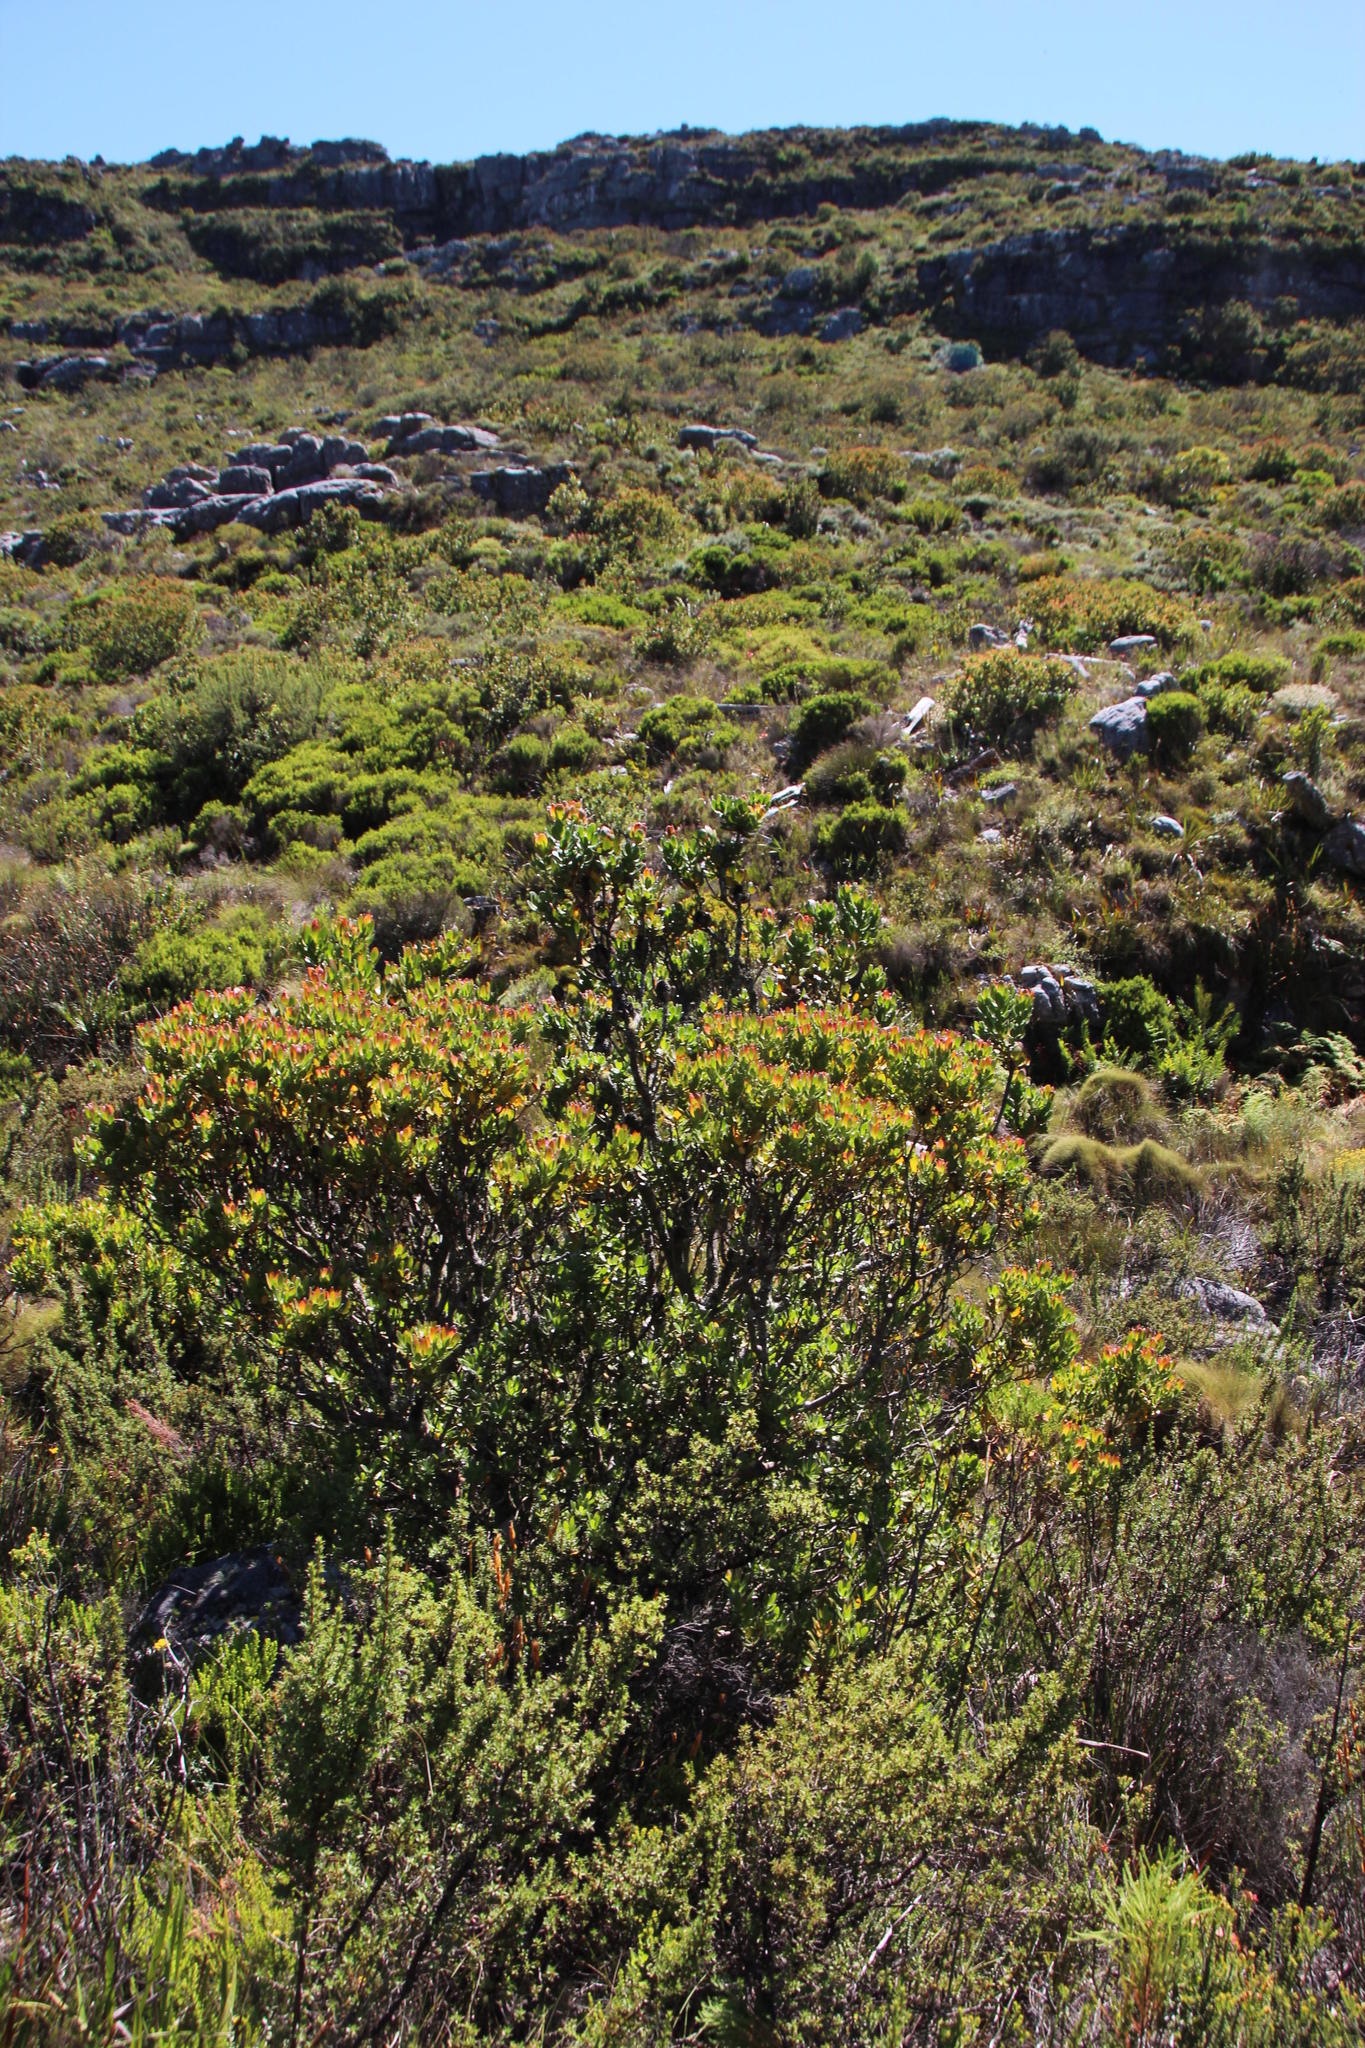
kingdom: Plantae
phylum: Tracheophyta
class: Magnoliopsida
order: Proteales
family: Proteaceae
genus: Leucadendron
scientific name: Leucadendron strobilinum
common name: Mountain rose
